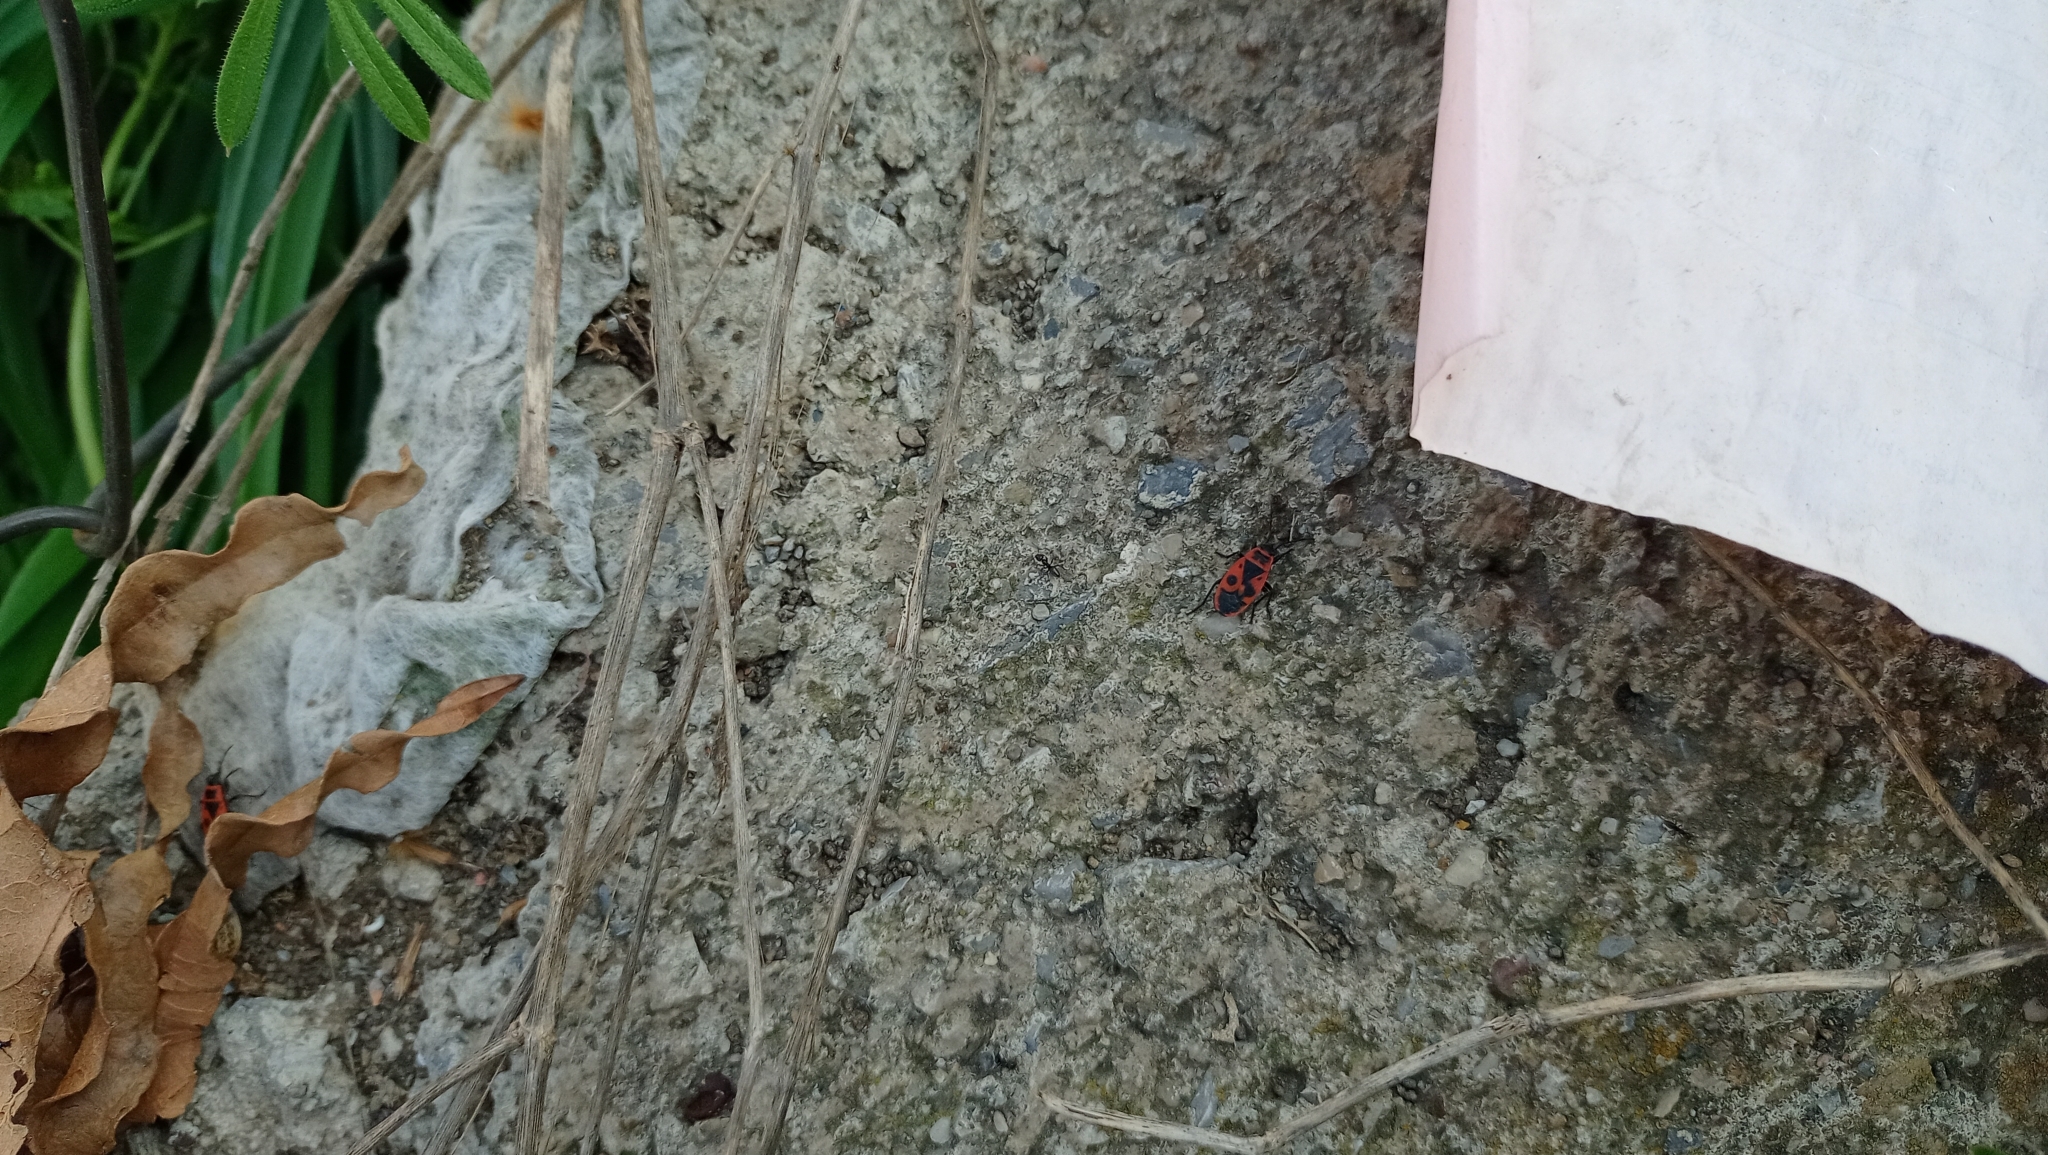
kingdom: Animalia
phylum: Arthropoda
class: Insecta
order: Hemiptera
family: Pyrrhocoridae
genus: Pyrrhocoris
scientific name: Pyrrhocoris apterus
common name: Firebug
